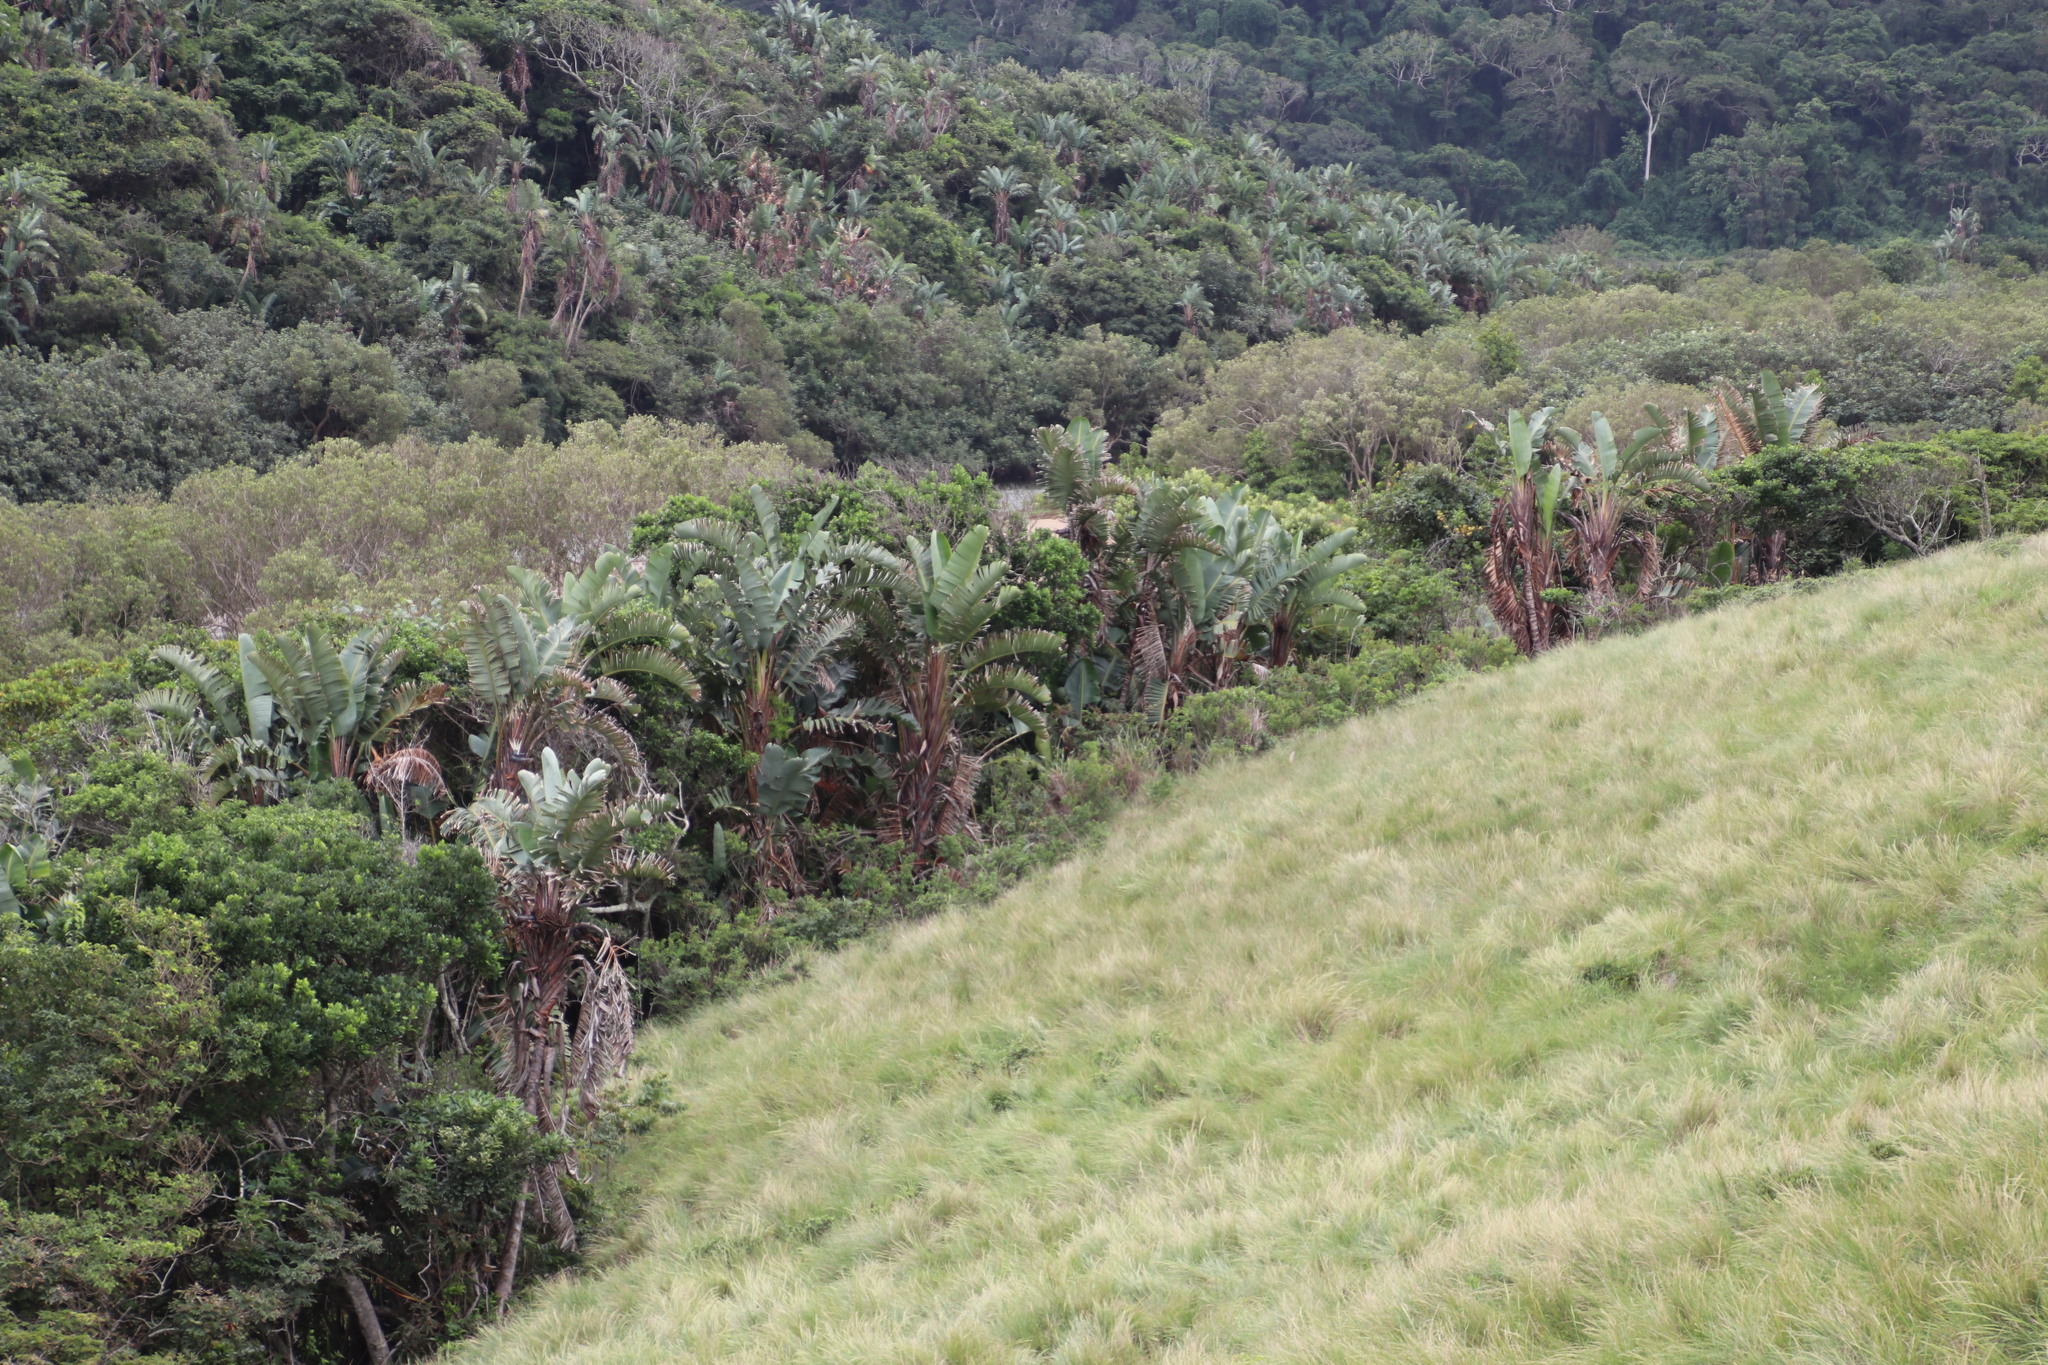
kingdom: Plantae
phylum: Tracheophyta
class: Liliopsida
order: Zingiberales
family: Strelitziaceae
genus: Strelitzia
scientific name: Strelitzia nicolai
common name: Bird-of-paradise tree
